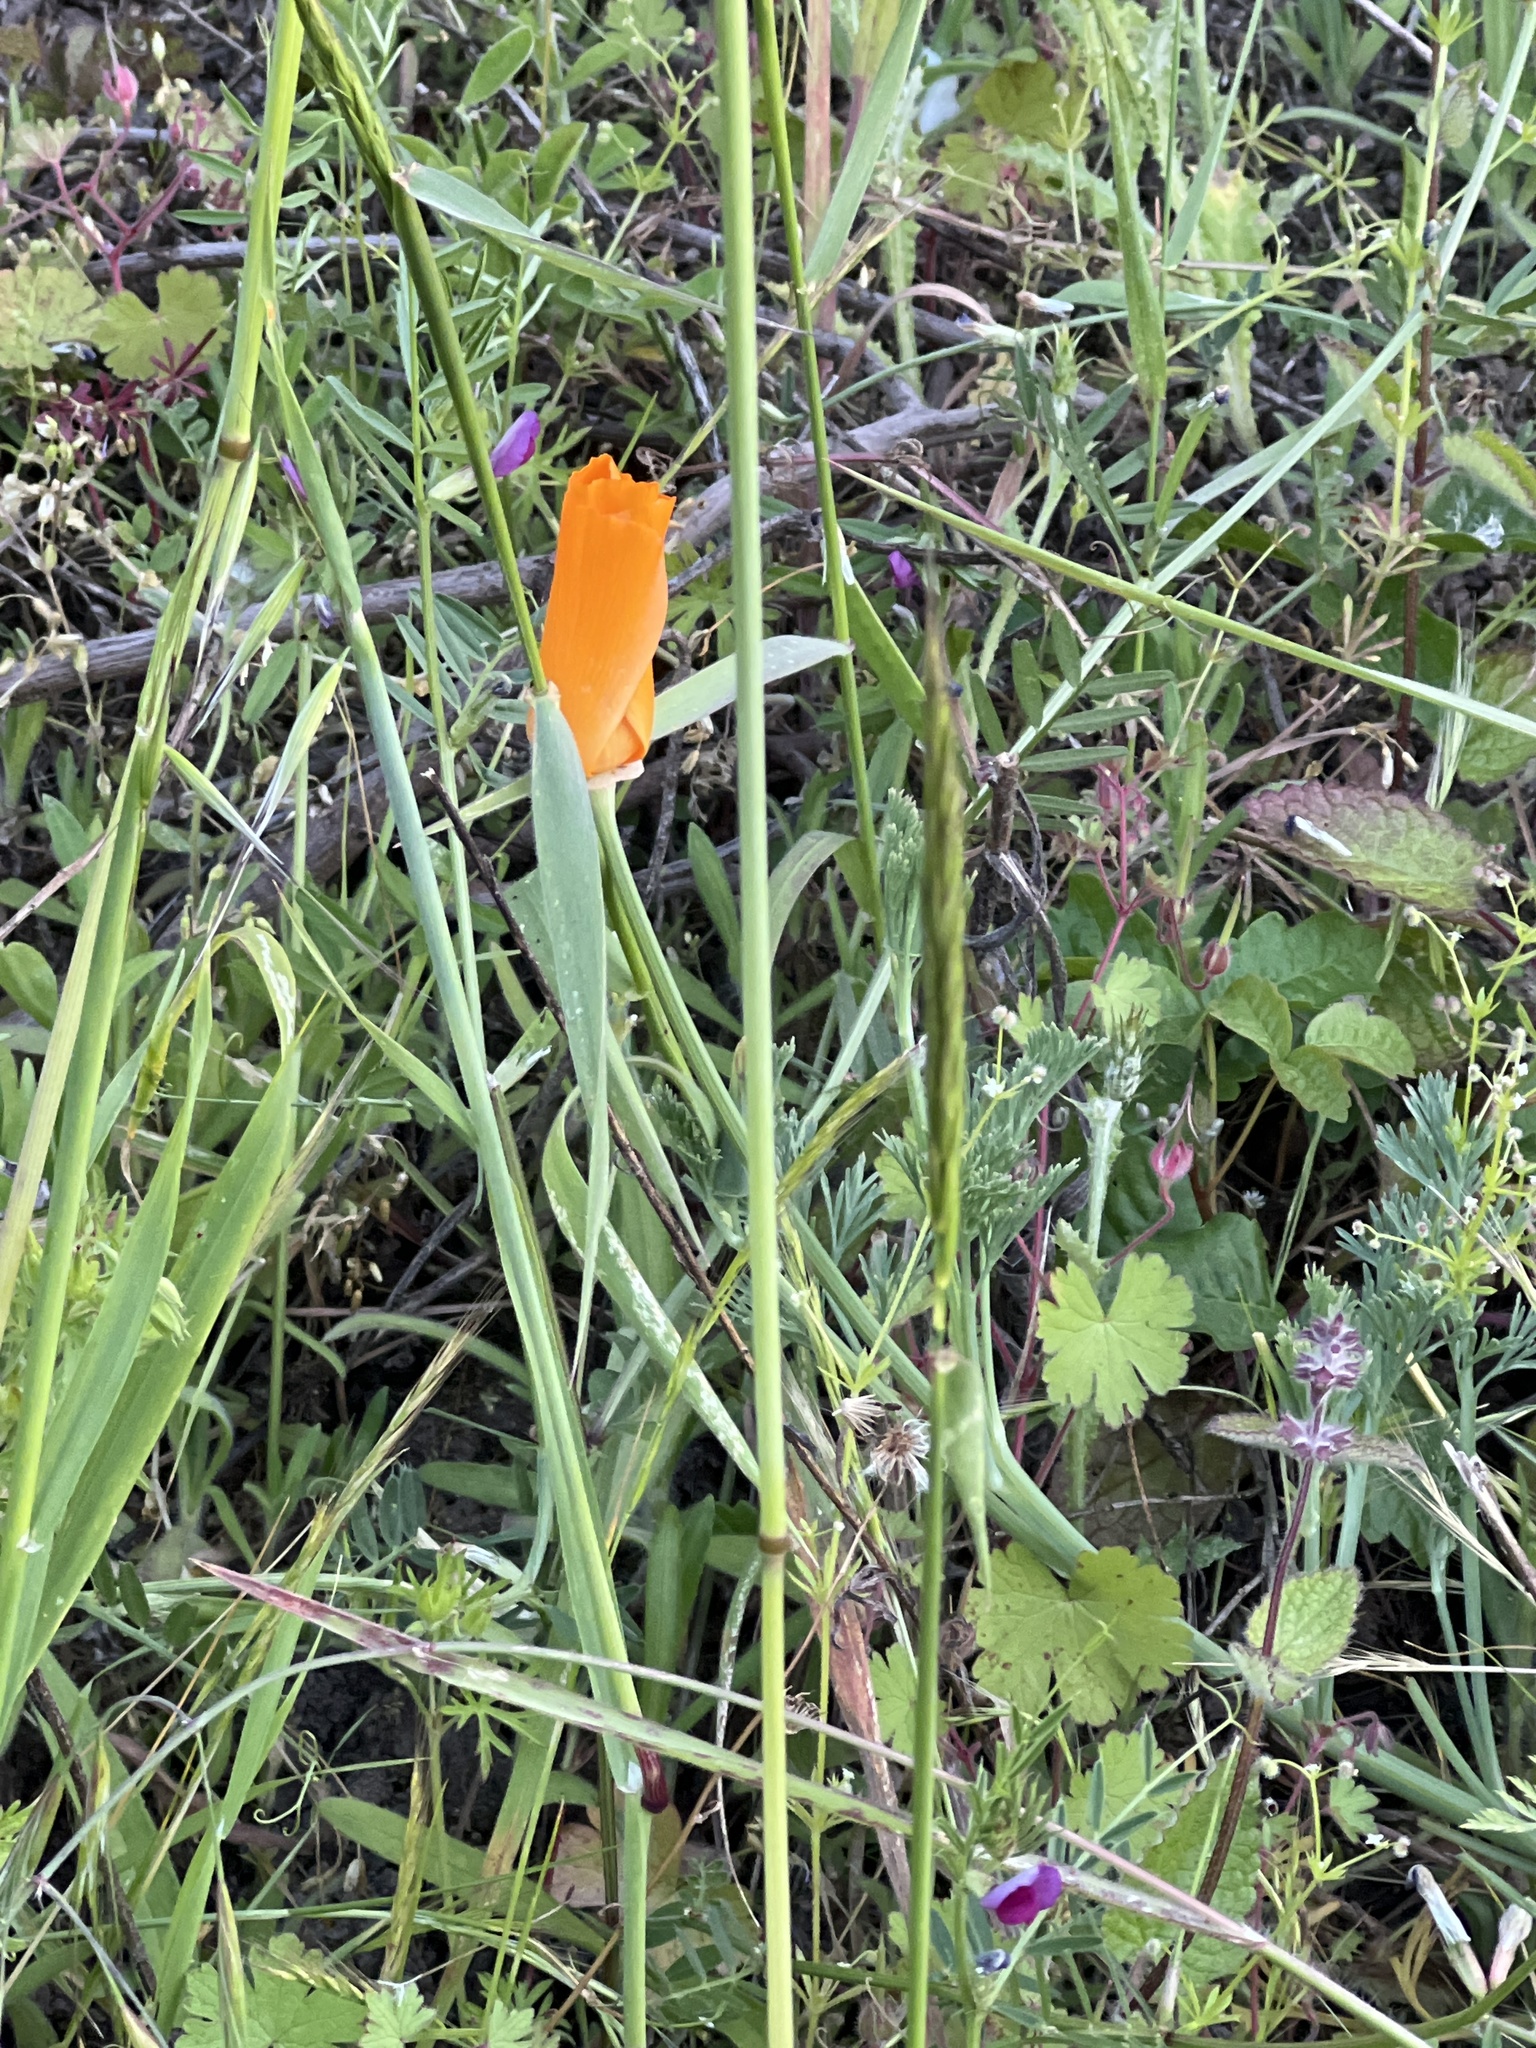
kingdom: Plantae
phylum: Tracheophyta
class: Magnoliopsida
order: Ranunculales
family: Papaveraceae
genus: Eschscholzia
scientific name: Eschscholzia californica
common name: California poppy
